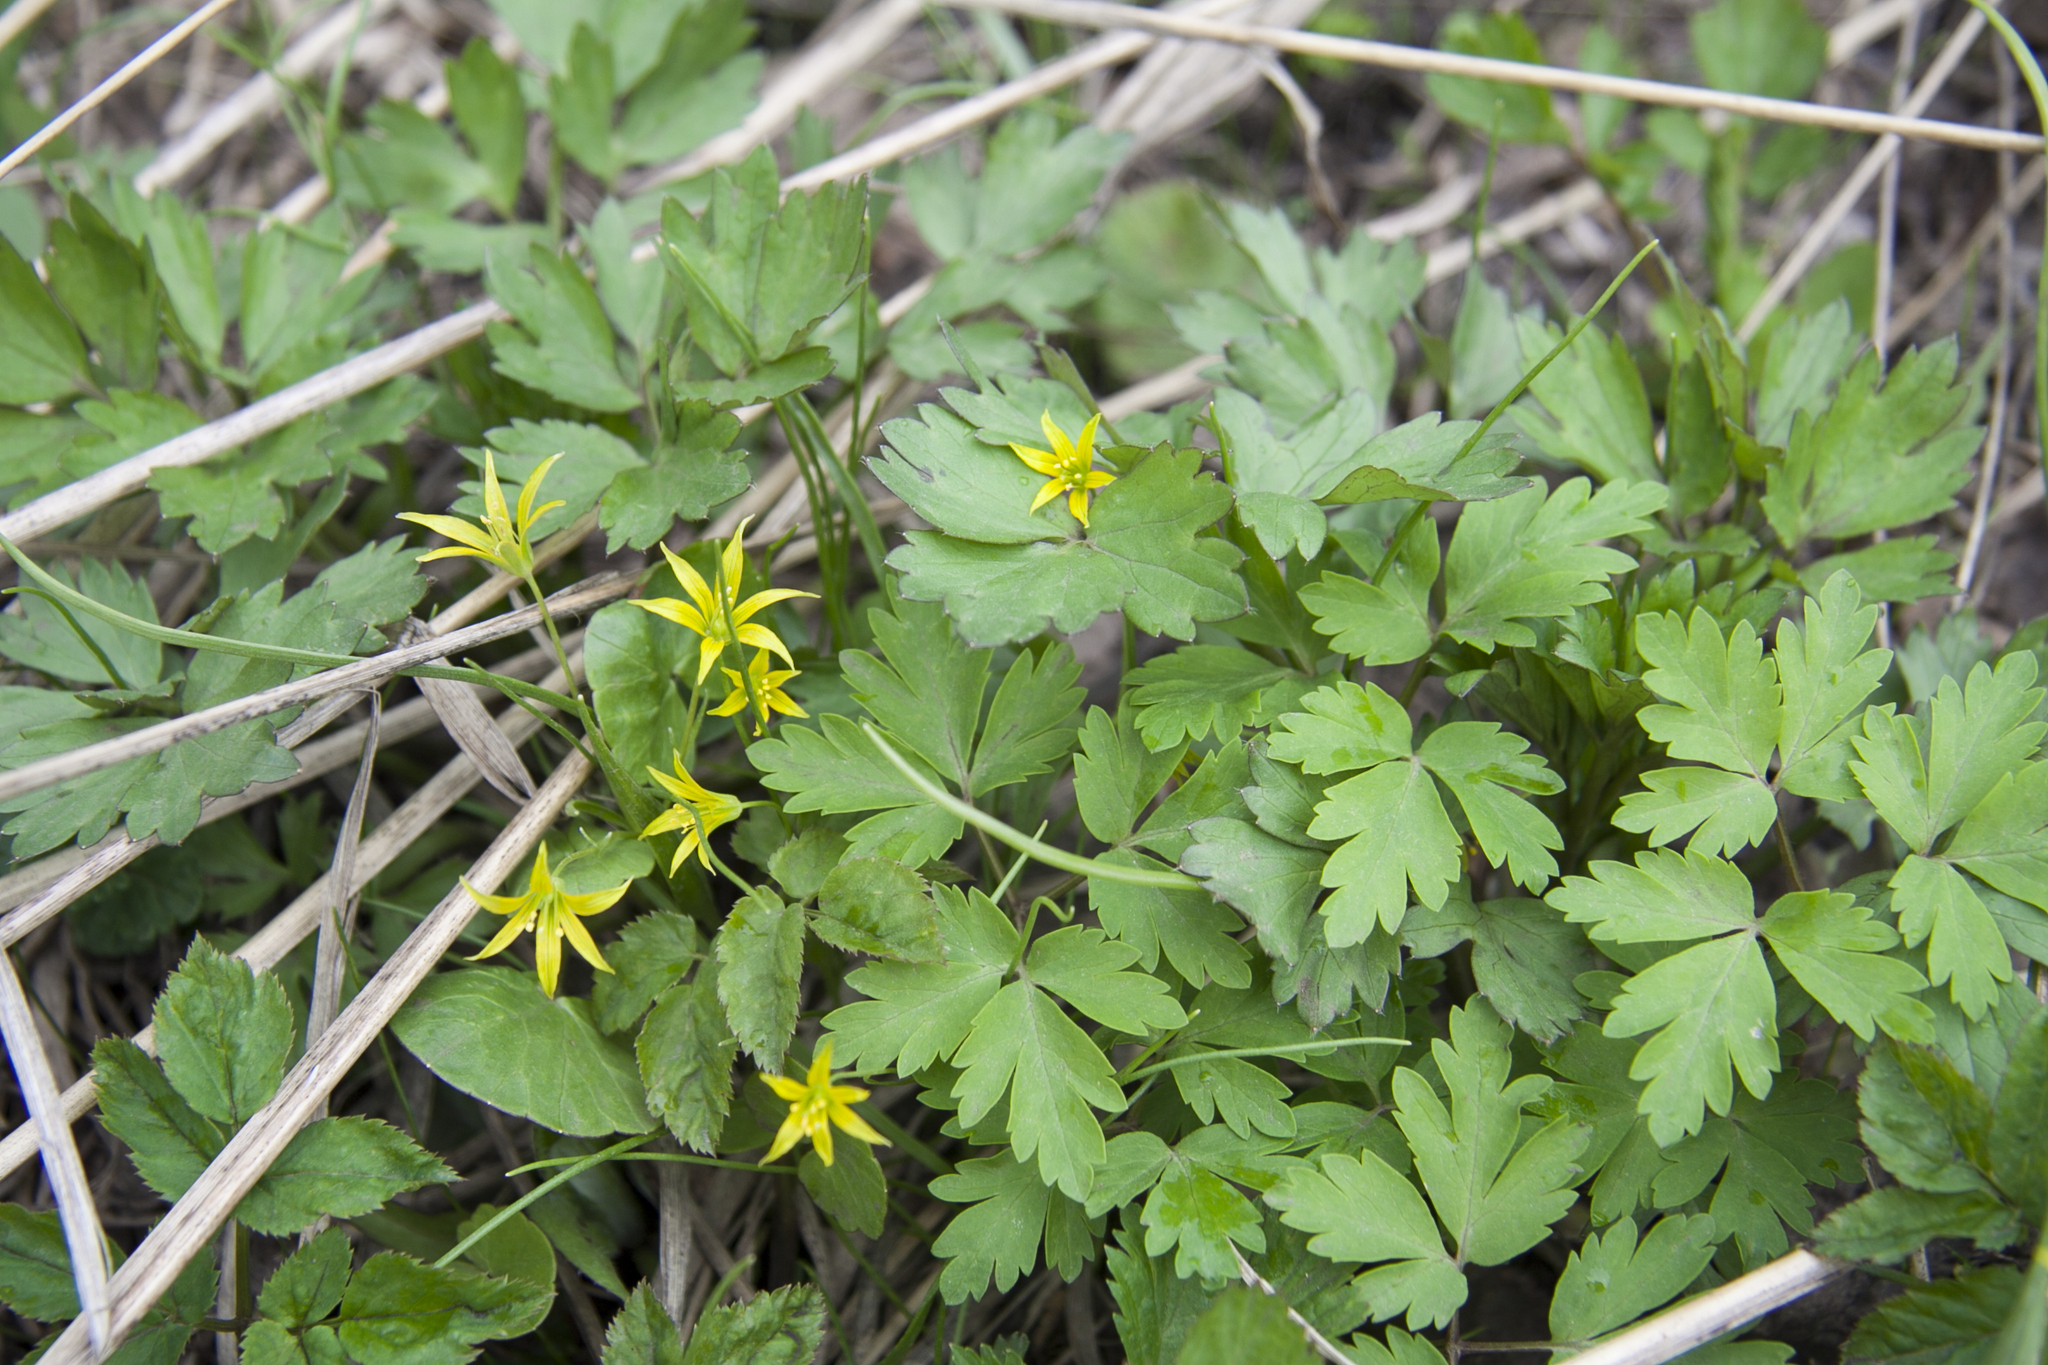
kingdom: Plantae
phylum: Tracheophyta
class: Liliopsida
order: Liliales
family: Liliaceae
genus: Gagea
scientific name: Gagea minima
